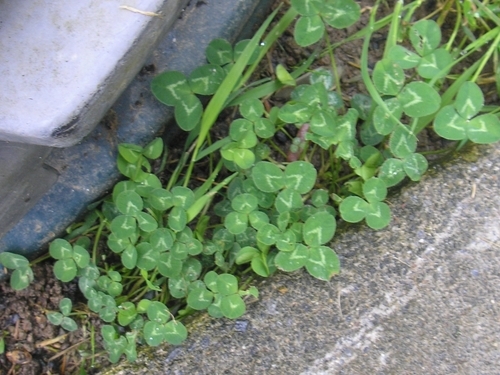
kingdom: Plantae
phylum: Tracheophyta
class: Magnoliopsida
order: Fabales
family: Fabaceae
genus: Trifolium
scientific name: Trifolium repens
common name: White clover
